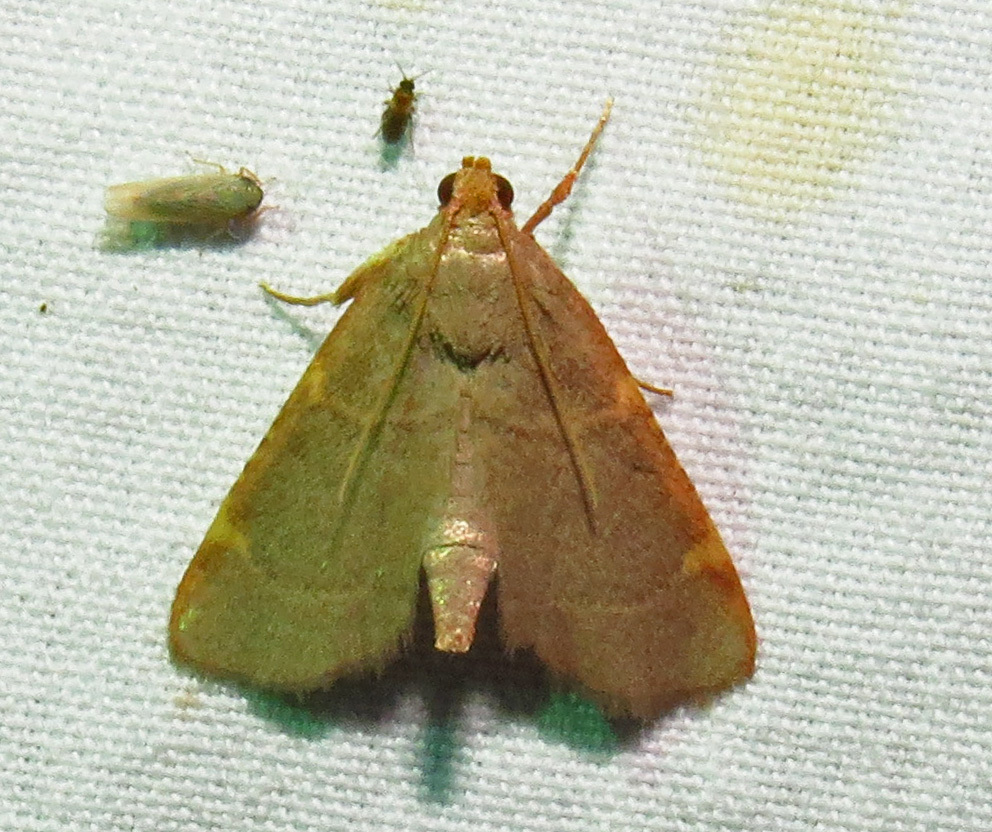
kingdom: Animalia
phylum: Arthropoda
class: Insecta
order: Lepidoptera
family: Pyralidae
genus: Hypsopygia
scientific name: Hypsopygia binodulalis
